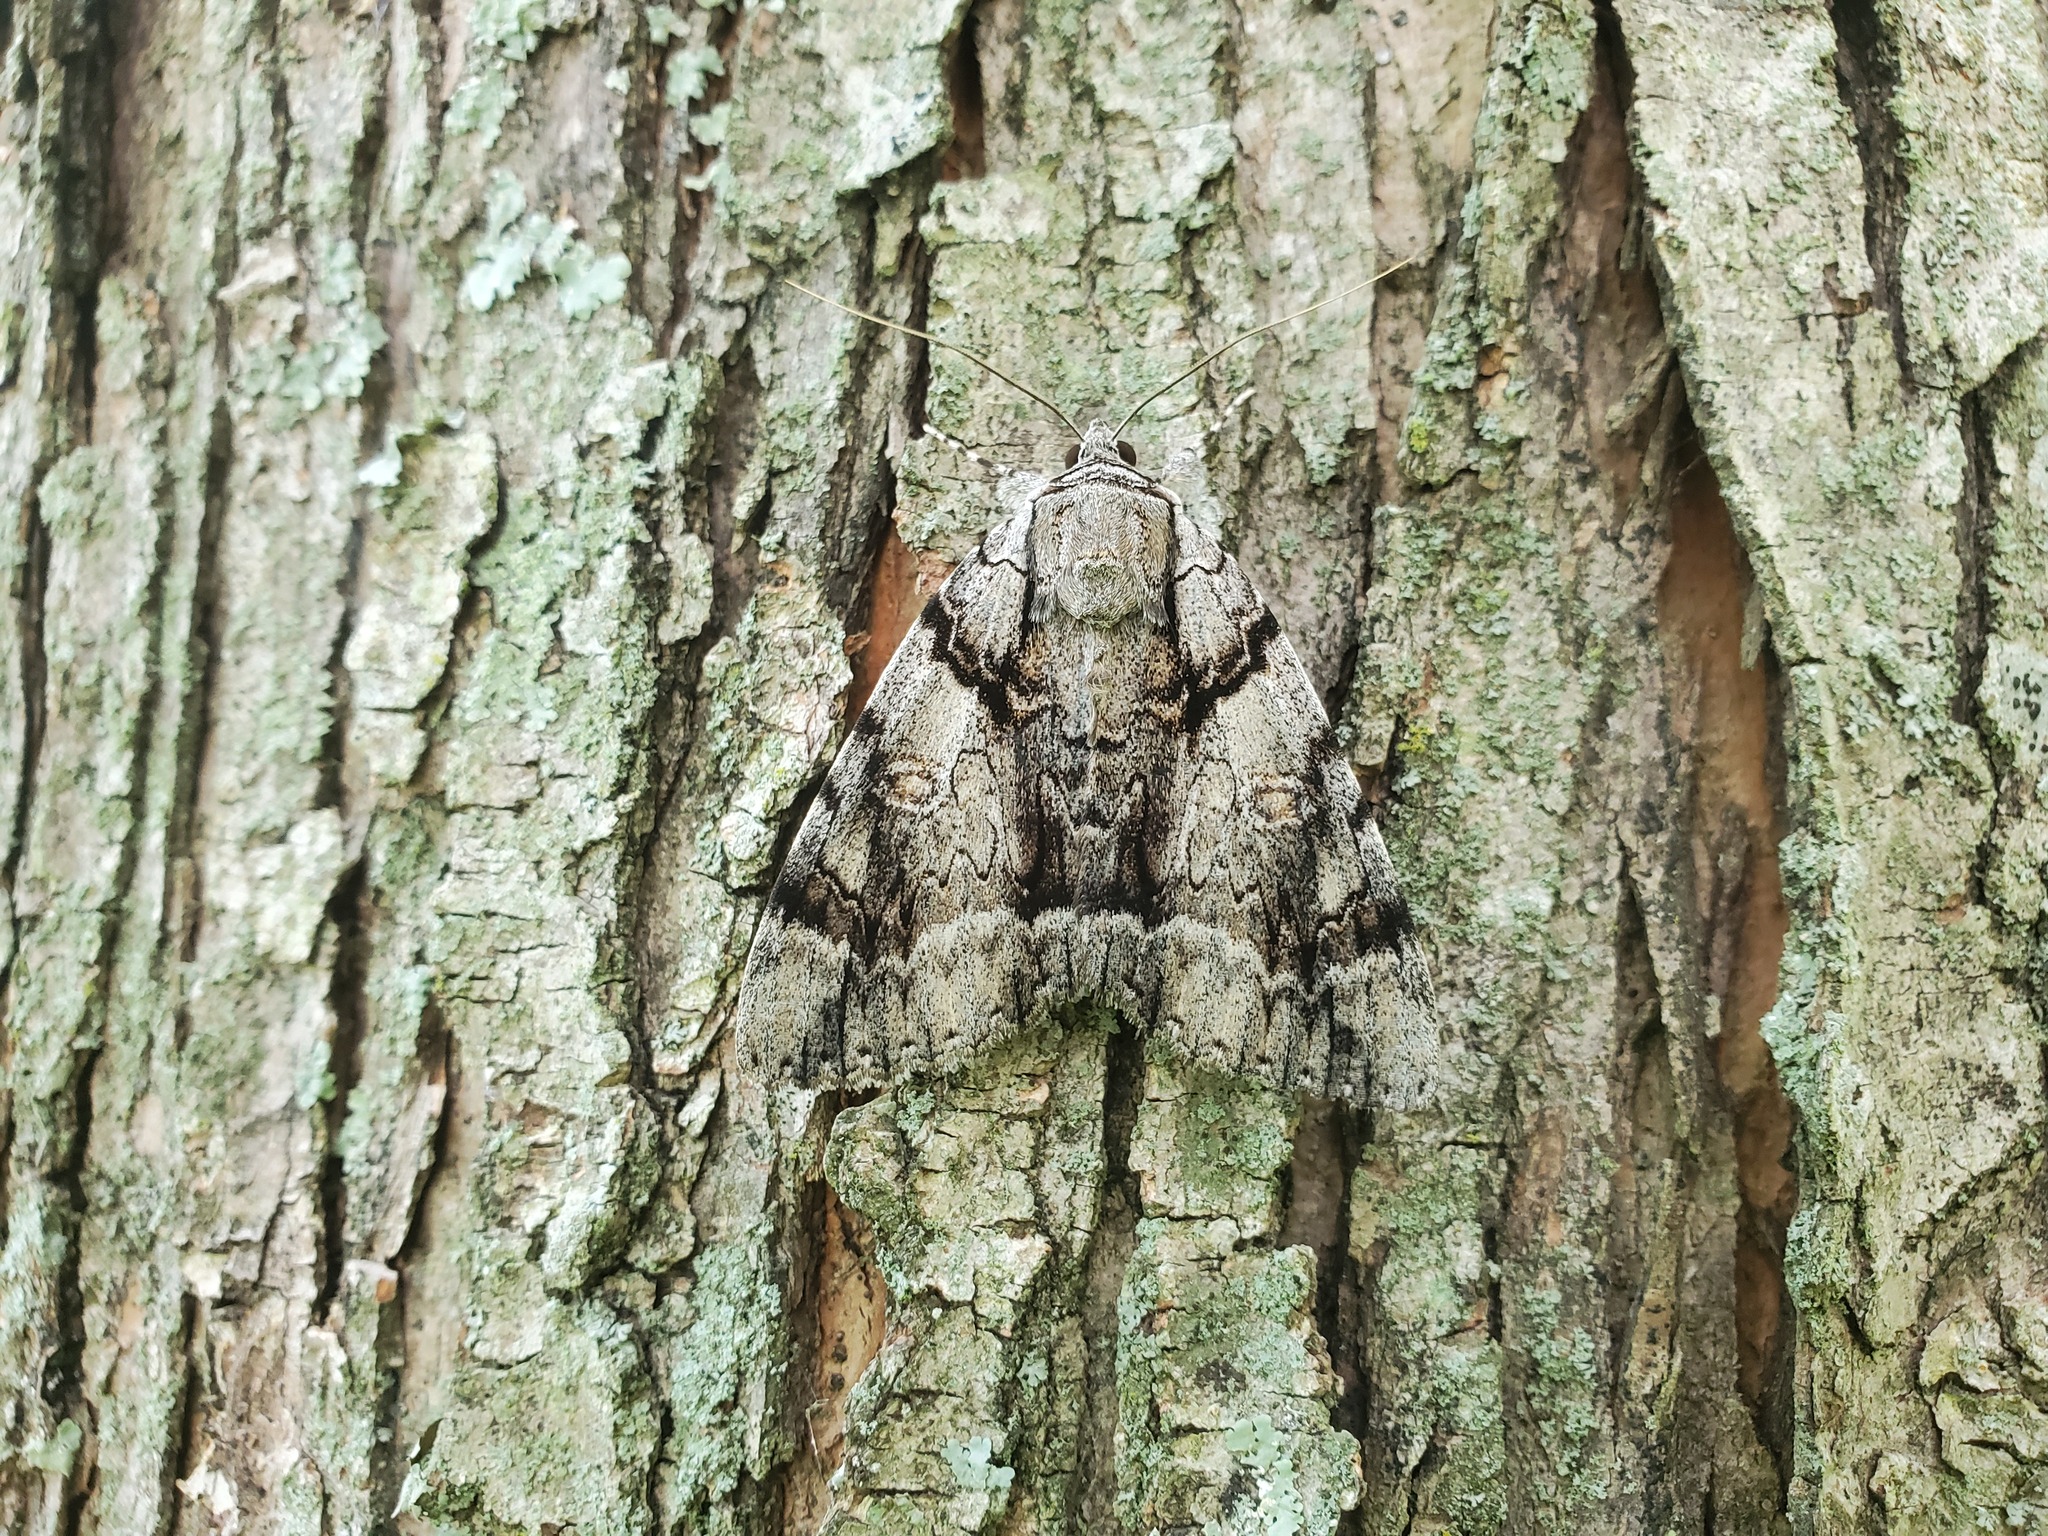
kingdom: Animalia
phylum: Arthropoda
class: Insecta
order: Lepidoptera
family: Erebidae
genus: Catocala
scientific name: Catocala vidua
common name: The widow
